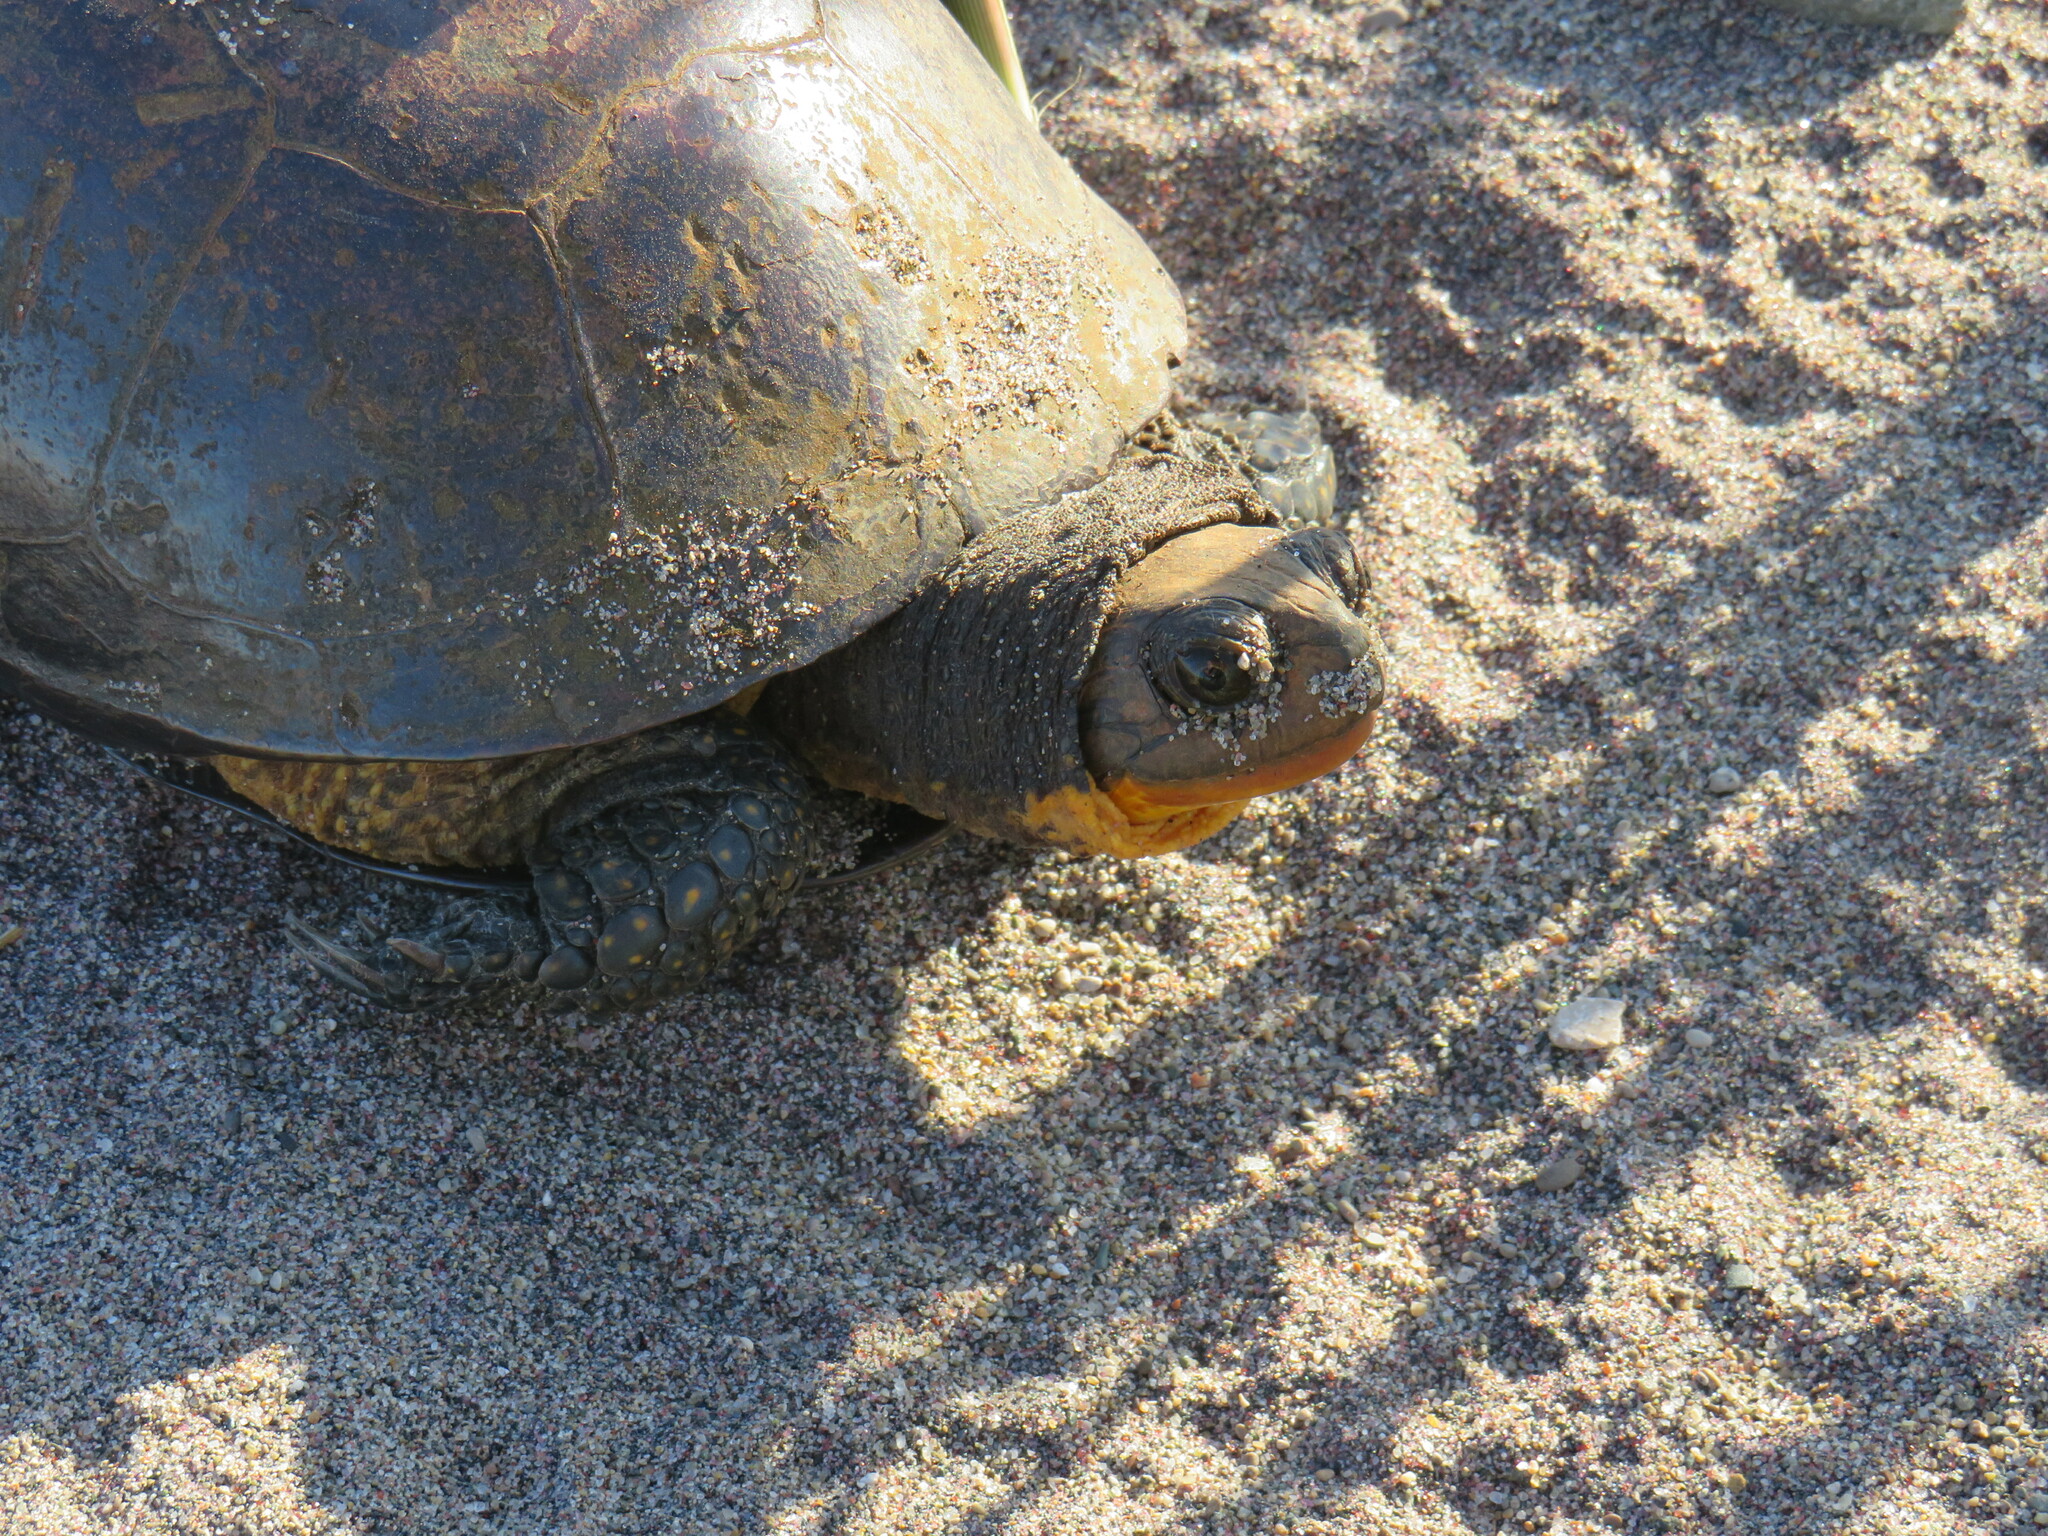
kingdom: Animalia
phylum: Chordata
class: Testudines
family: Emydidae
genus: Emys
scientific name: Emys blandingii
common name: Blanding's turtle
